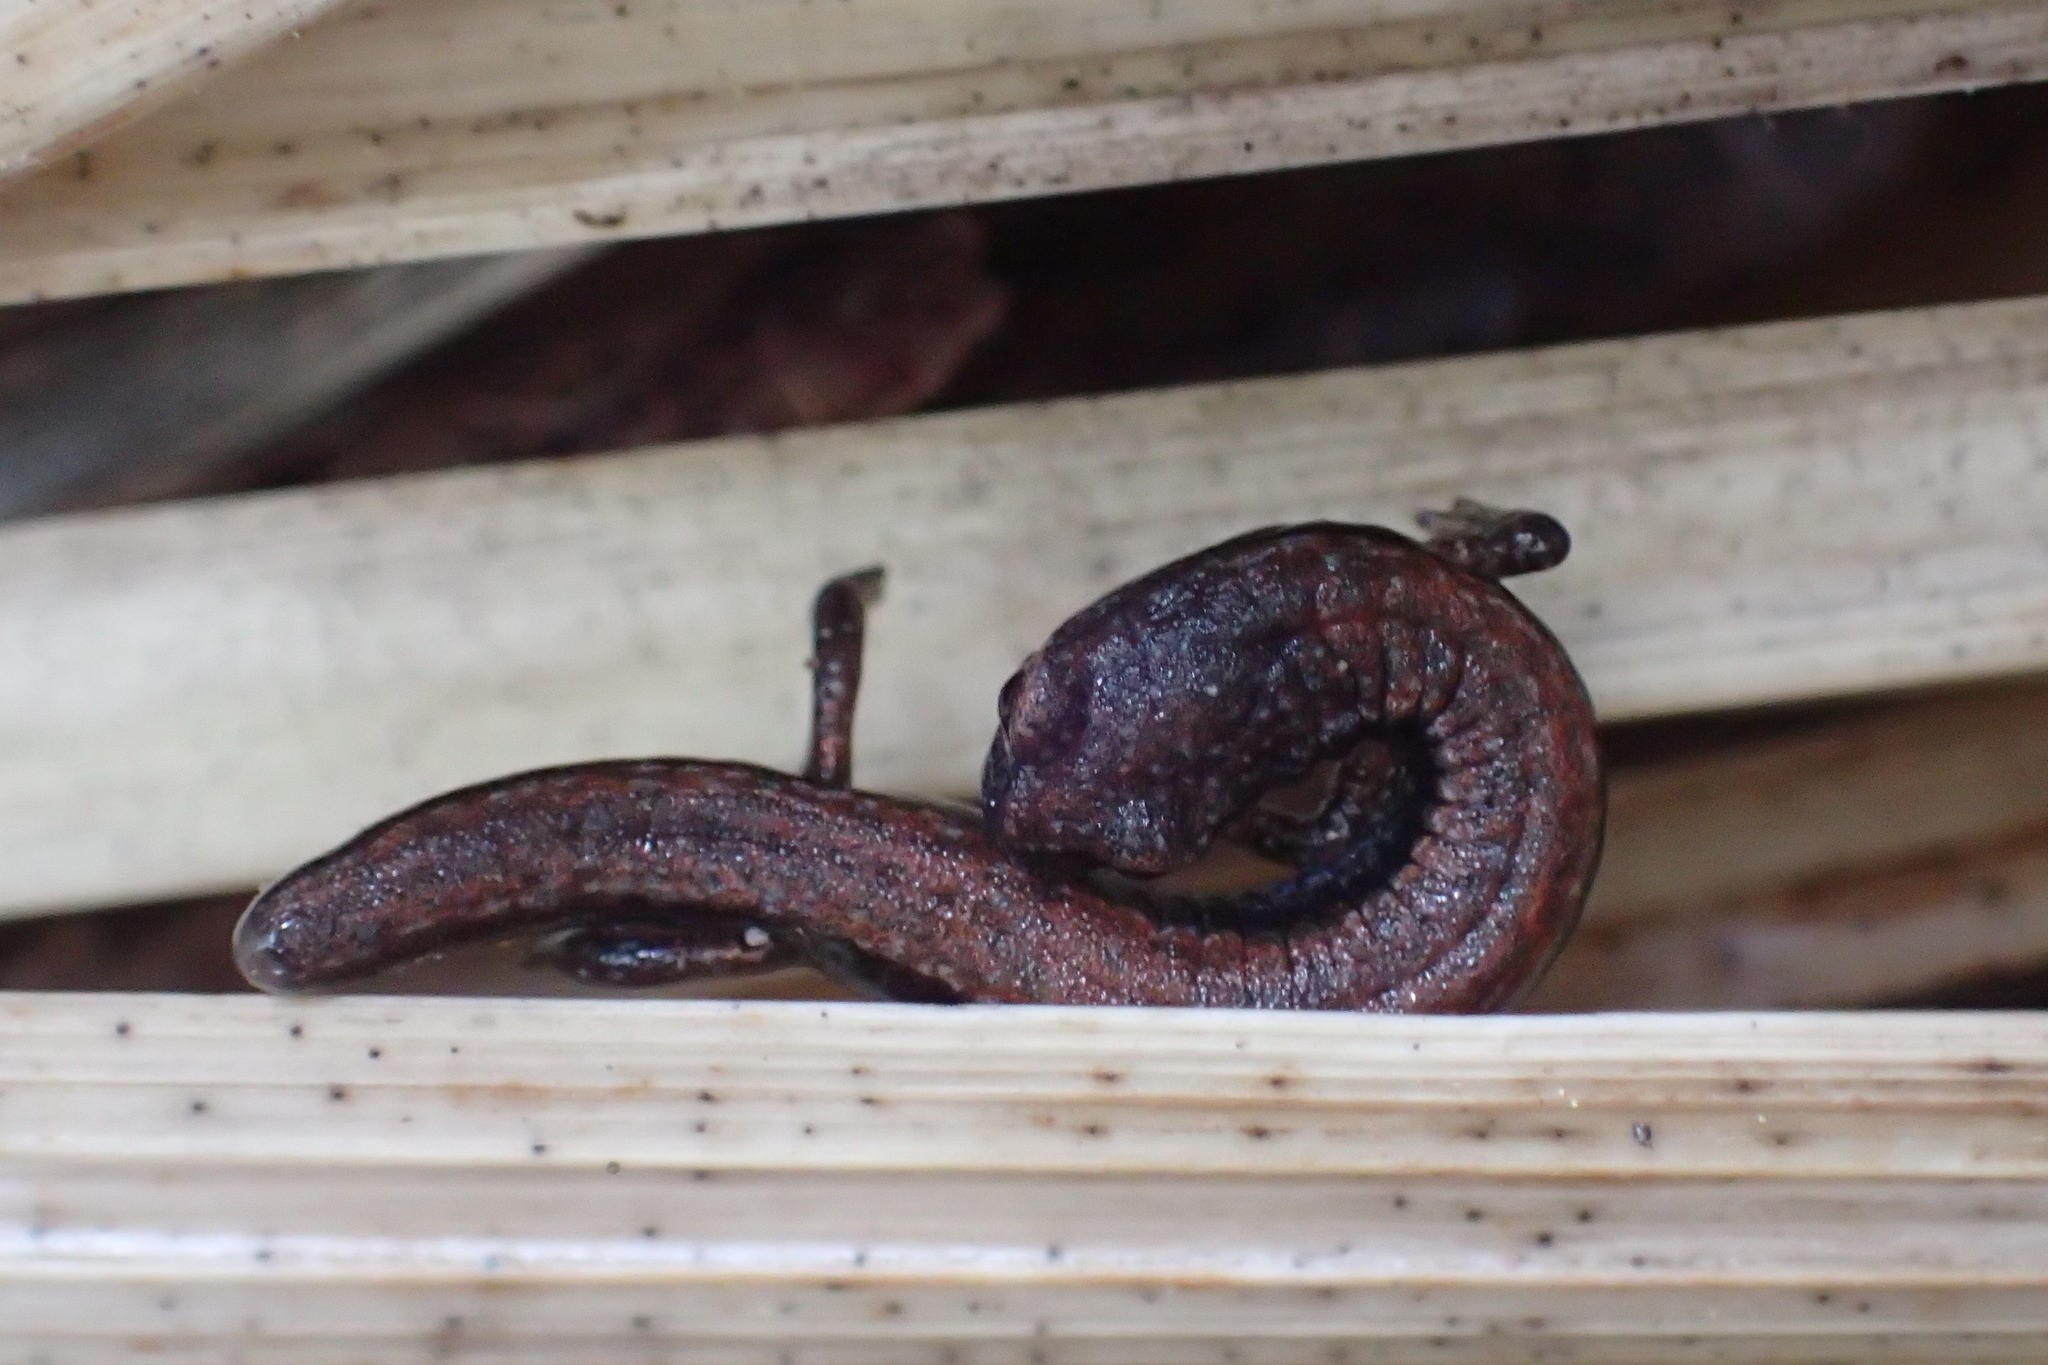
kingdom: Animalia
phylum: Chordata
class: Amphibia
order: Caudata
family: Plethodontidae
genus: Batrachoseps
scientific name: Batrachoseps gavilanensis
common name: Gabilan mountains slender salamander
